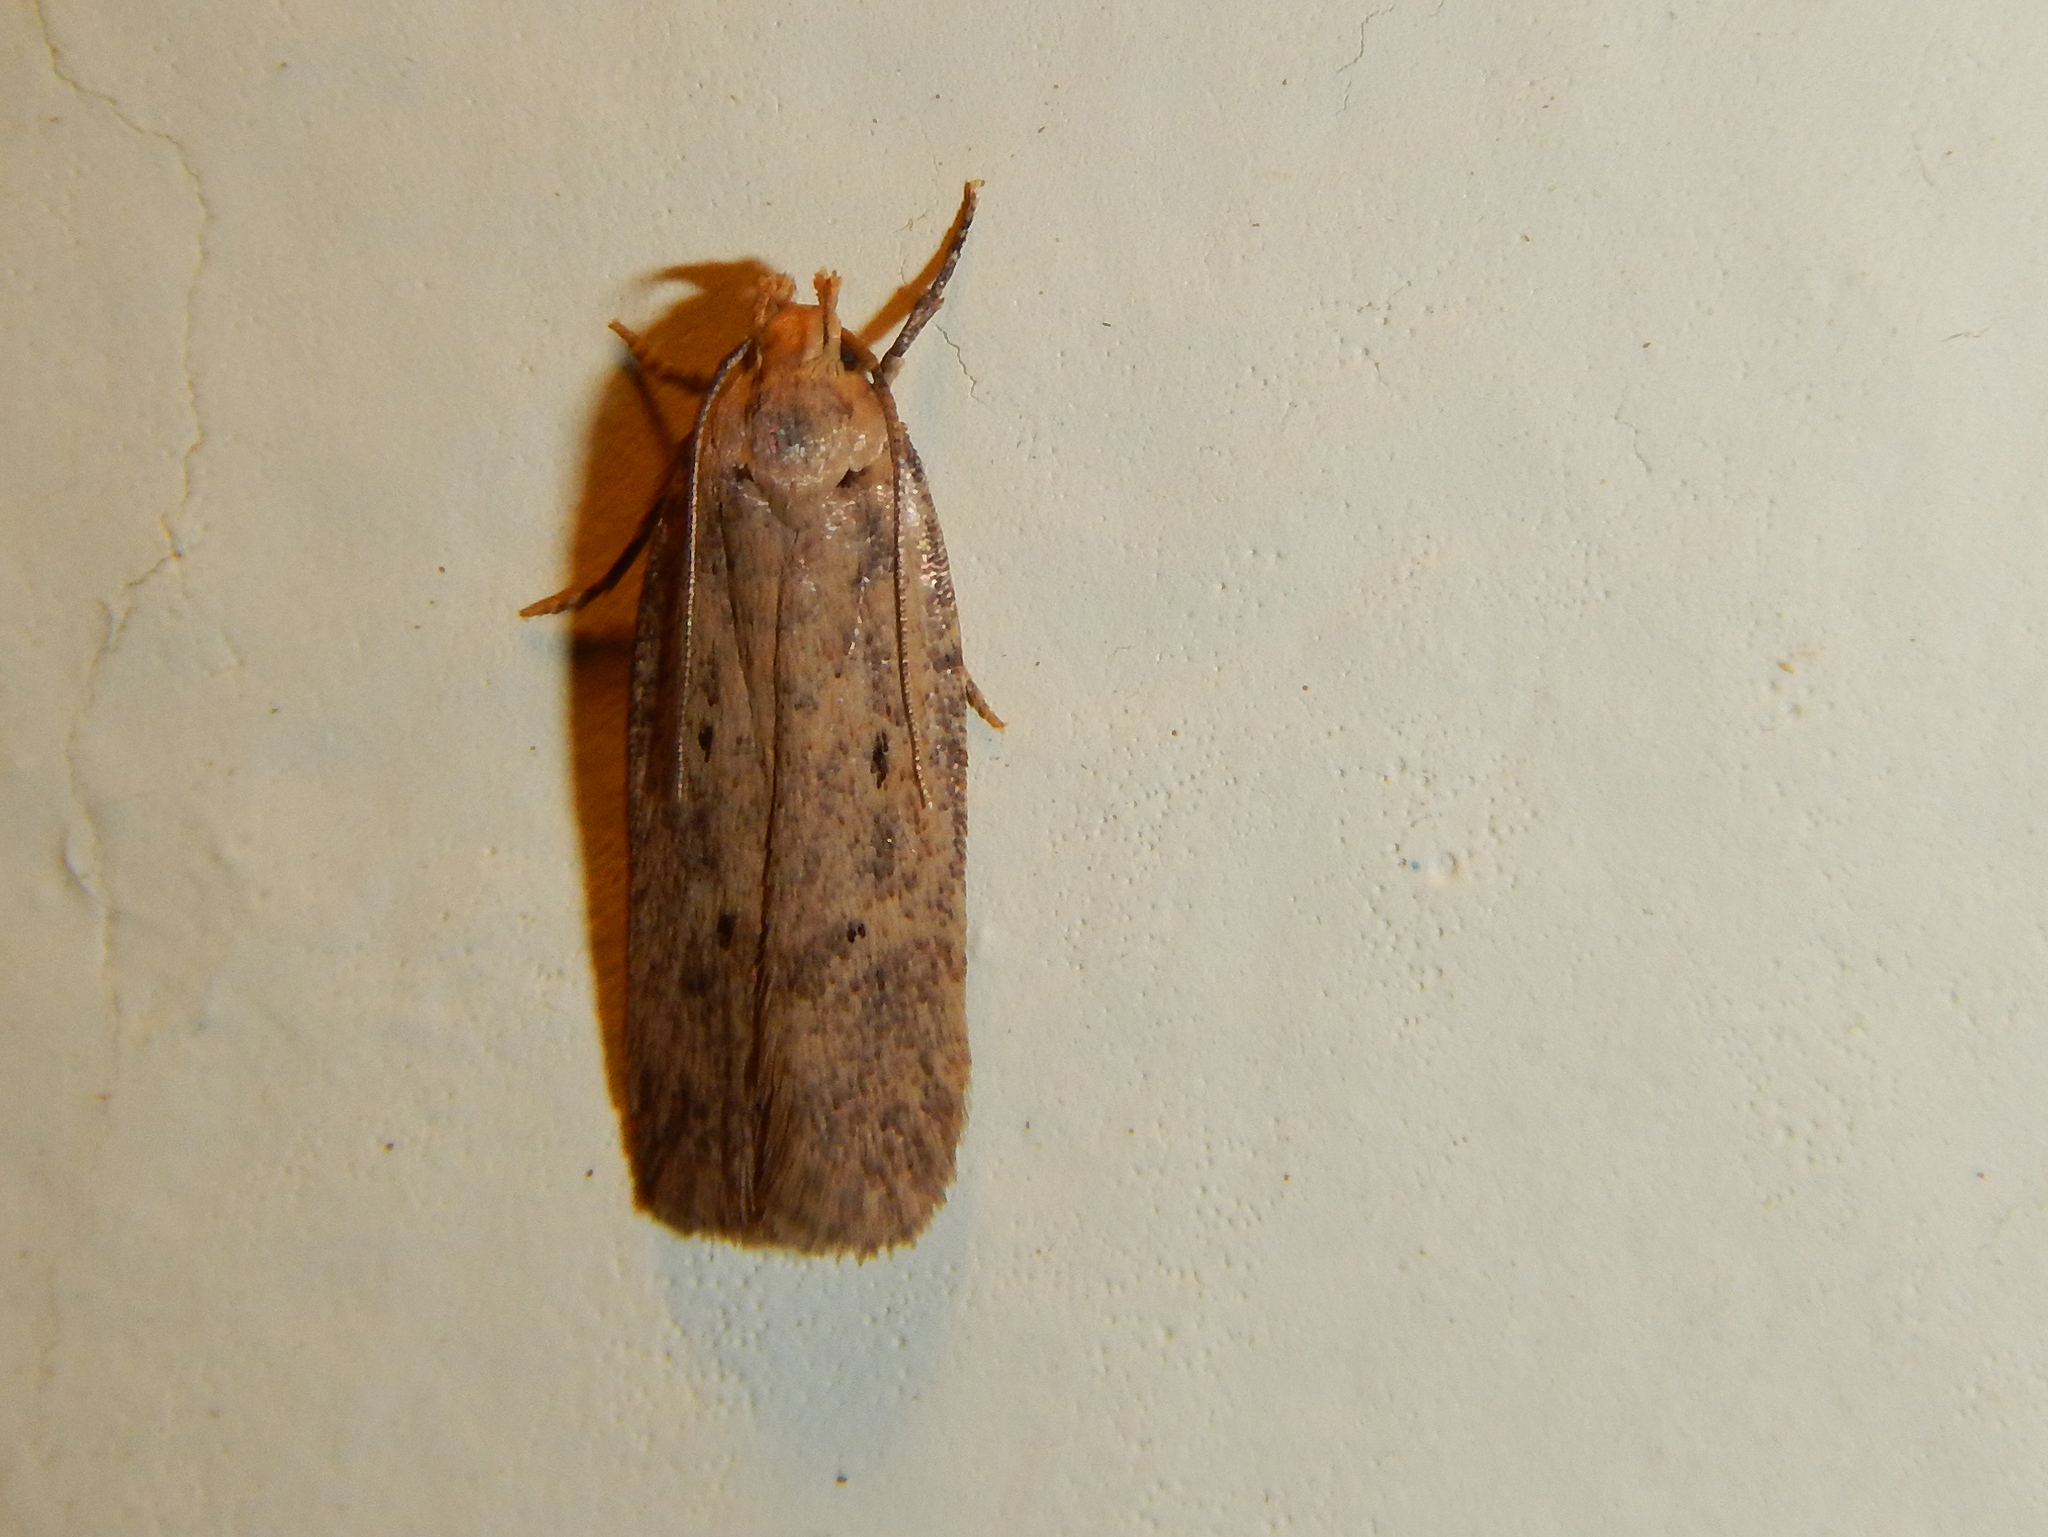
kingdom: Animalia
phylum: Arthropoda
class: Insecta
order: Lepidoptera
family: Gelechiidae
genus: Platyedra
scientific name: Platyedra subcinerea
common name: Moth
